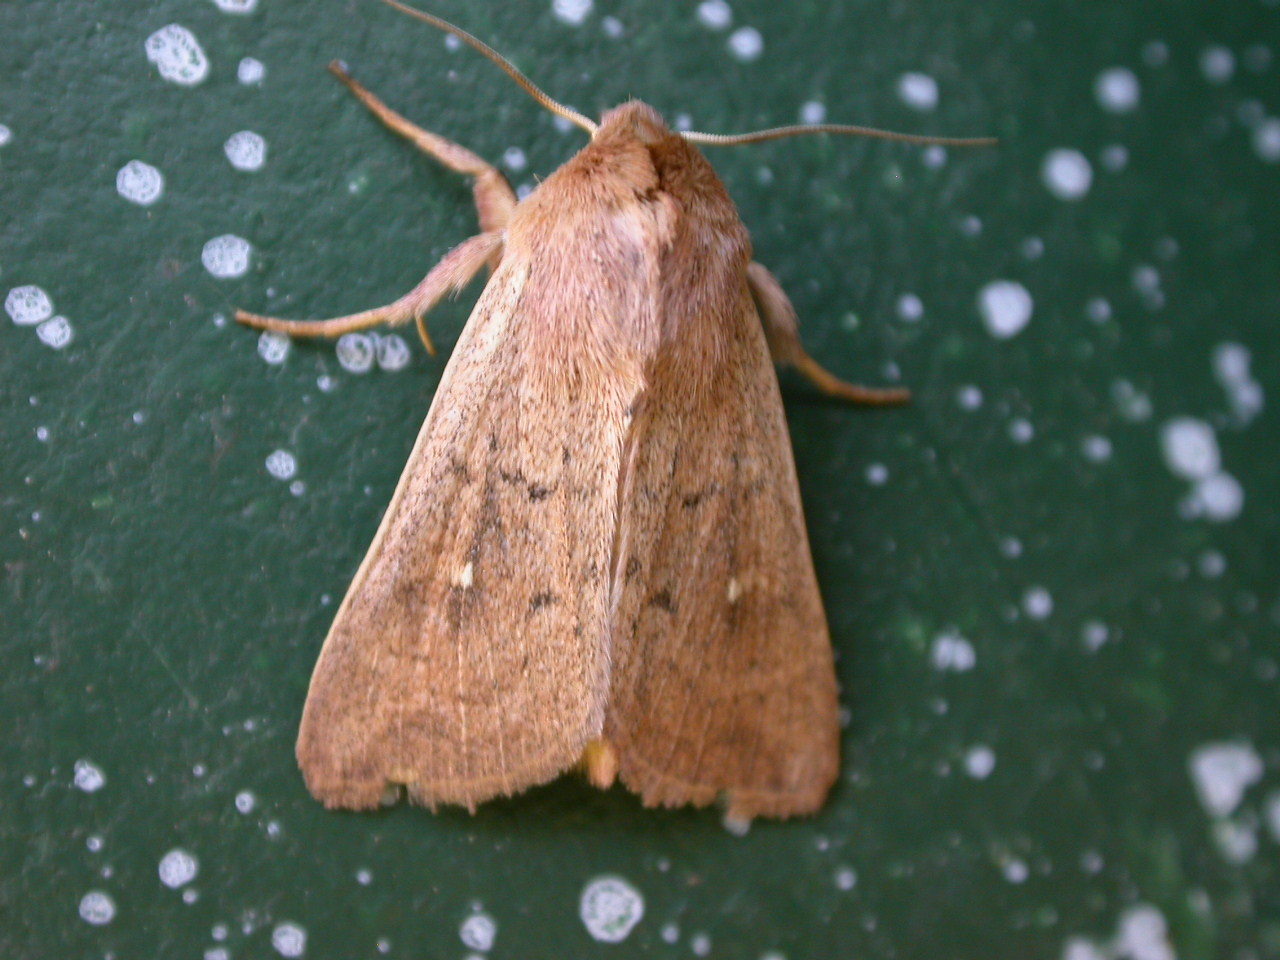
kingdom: Animalia
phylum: Arthropoda
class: Insecta
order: Lepidoptera
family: Noctuidae
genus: Mythimna
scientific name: Mythimna ferrago
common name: Clay
